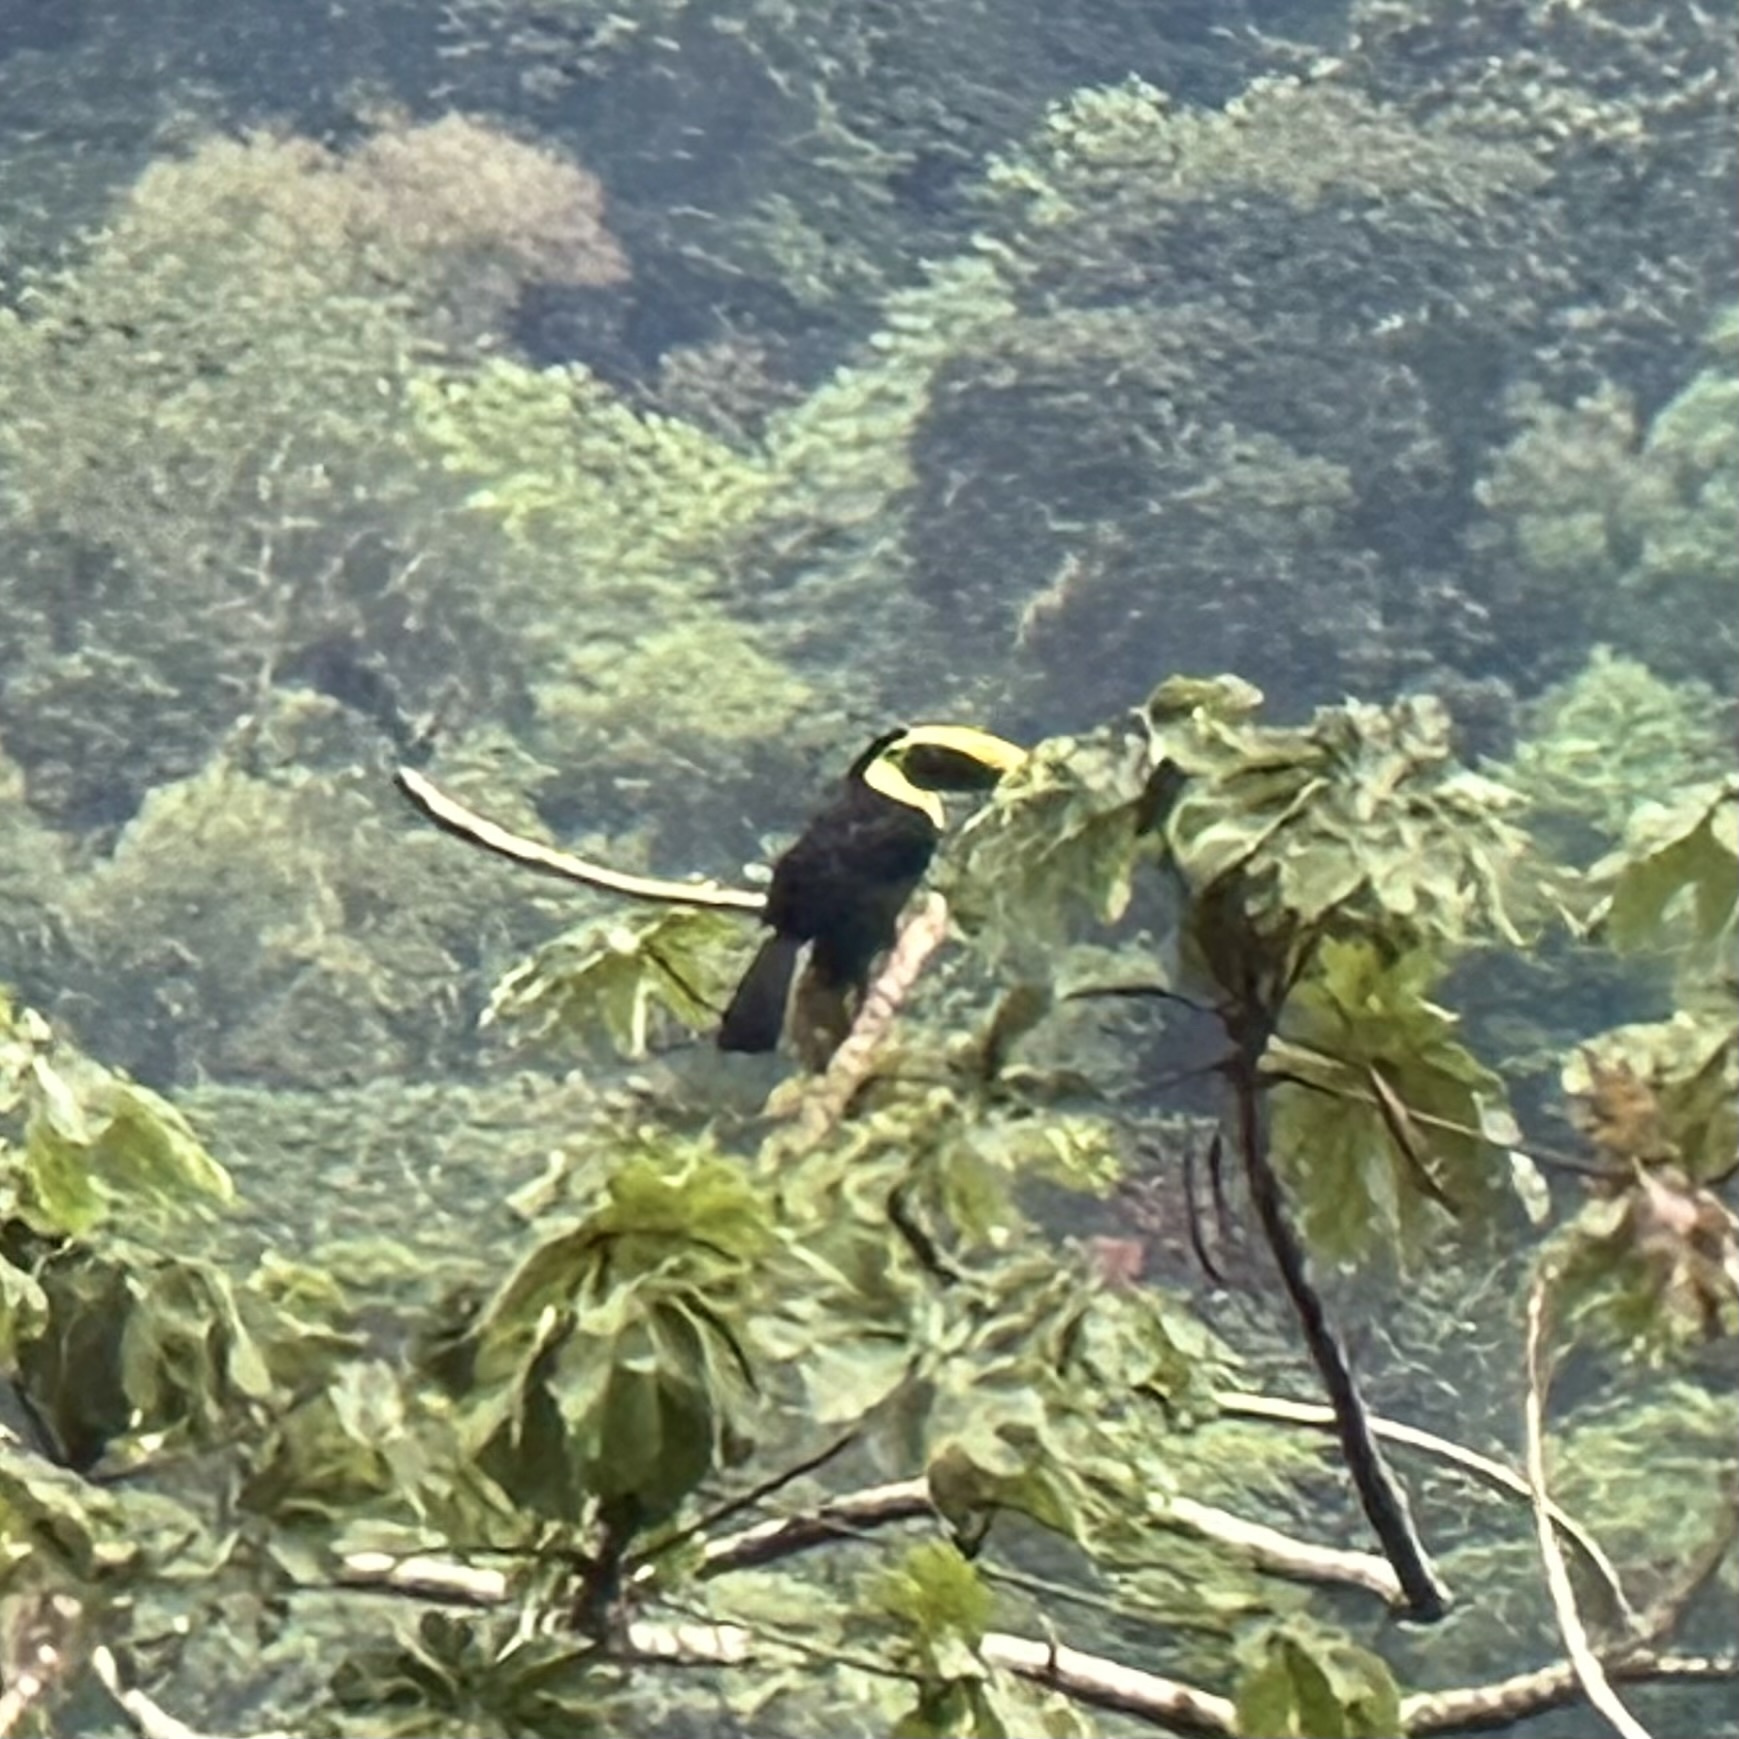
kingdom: Animalia
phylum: Chordata
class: Aves
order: Piciformes
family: Ramphastidae
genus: Ramphastos
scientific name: Ramphastos ambiguus
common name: Yellow-throated toucan
